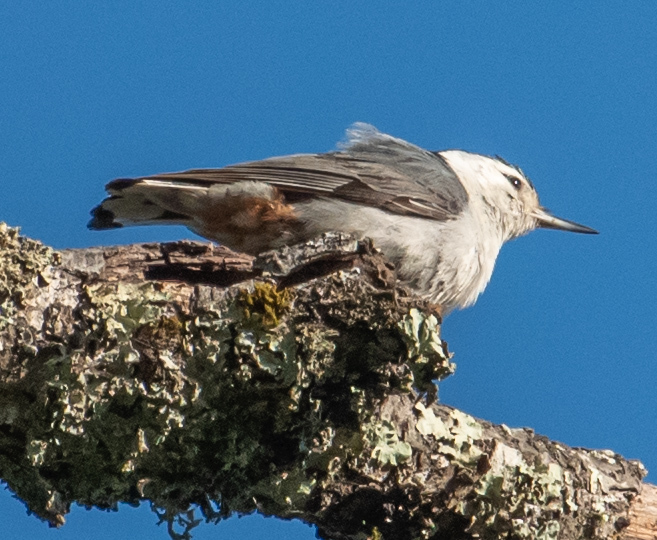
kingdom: Animalia
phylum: Chordata
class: Aves
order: Passeriformes
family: Sittidae
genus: Sitta
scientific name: Sitta carolinensis
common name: White-breasted nuthatch
